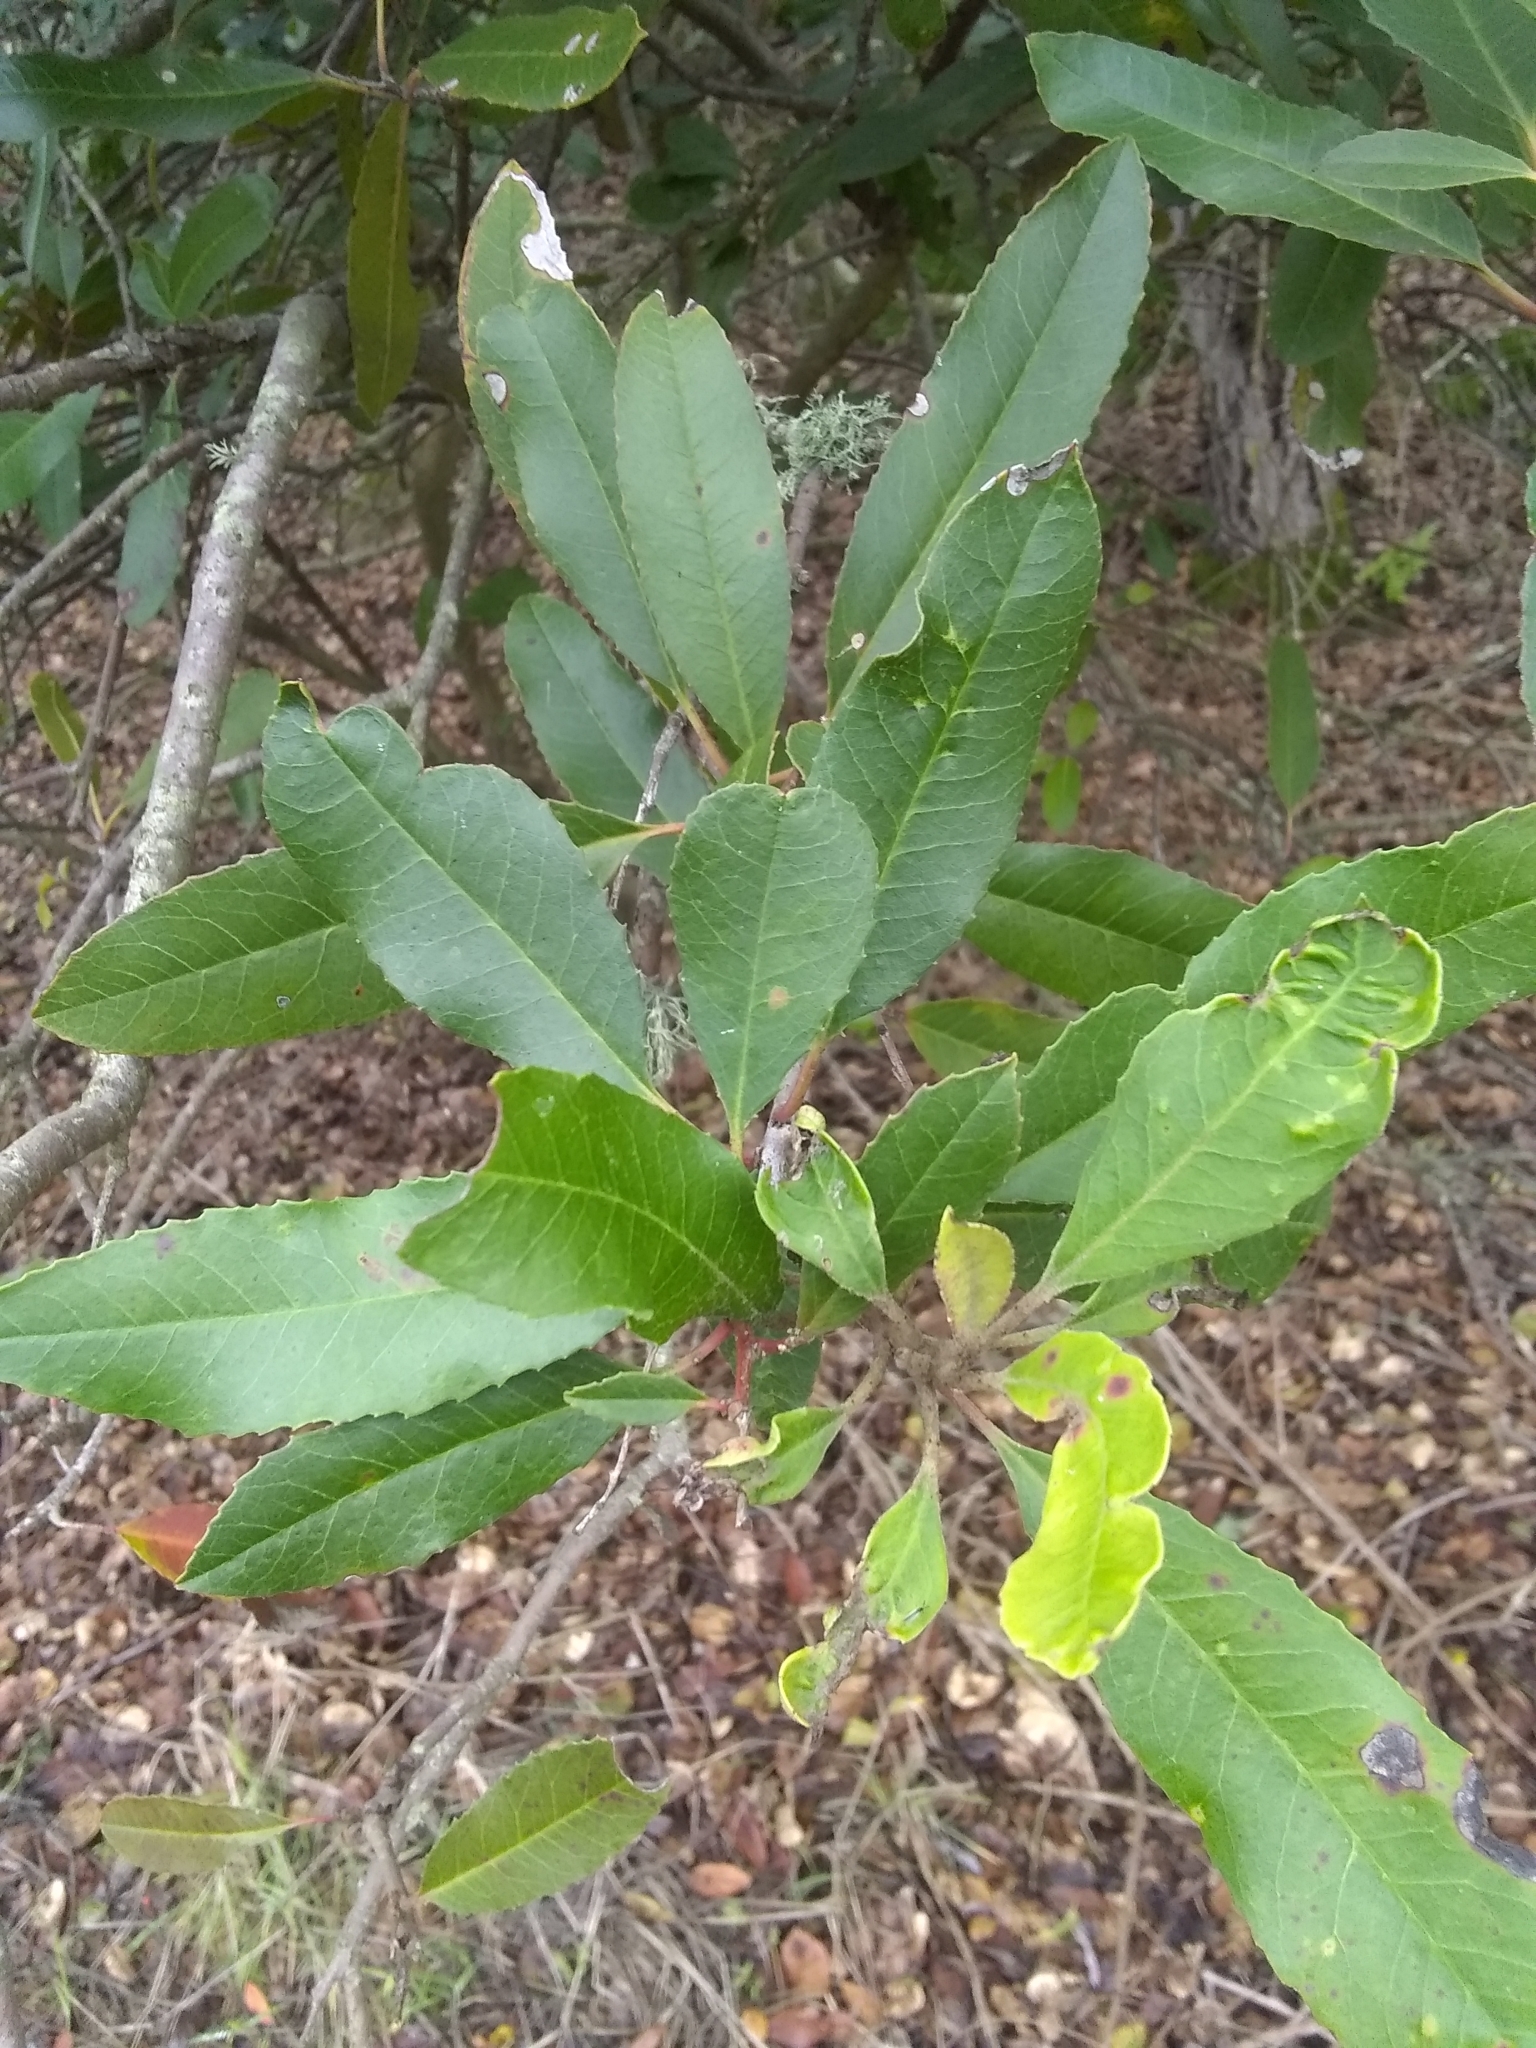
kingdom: Plantae
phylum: Tracheophyta
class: Magnoliopsida
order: Rosales
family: Rosaceae
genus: Heteromeles
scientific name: Heteromeles arbutifolia
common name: California-holly
